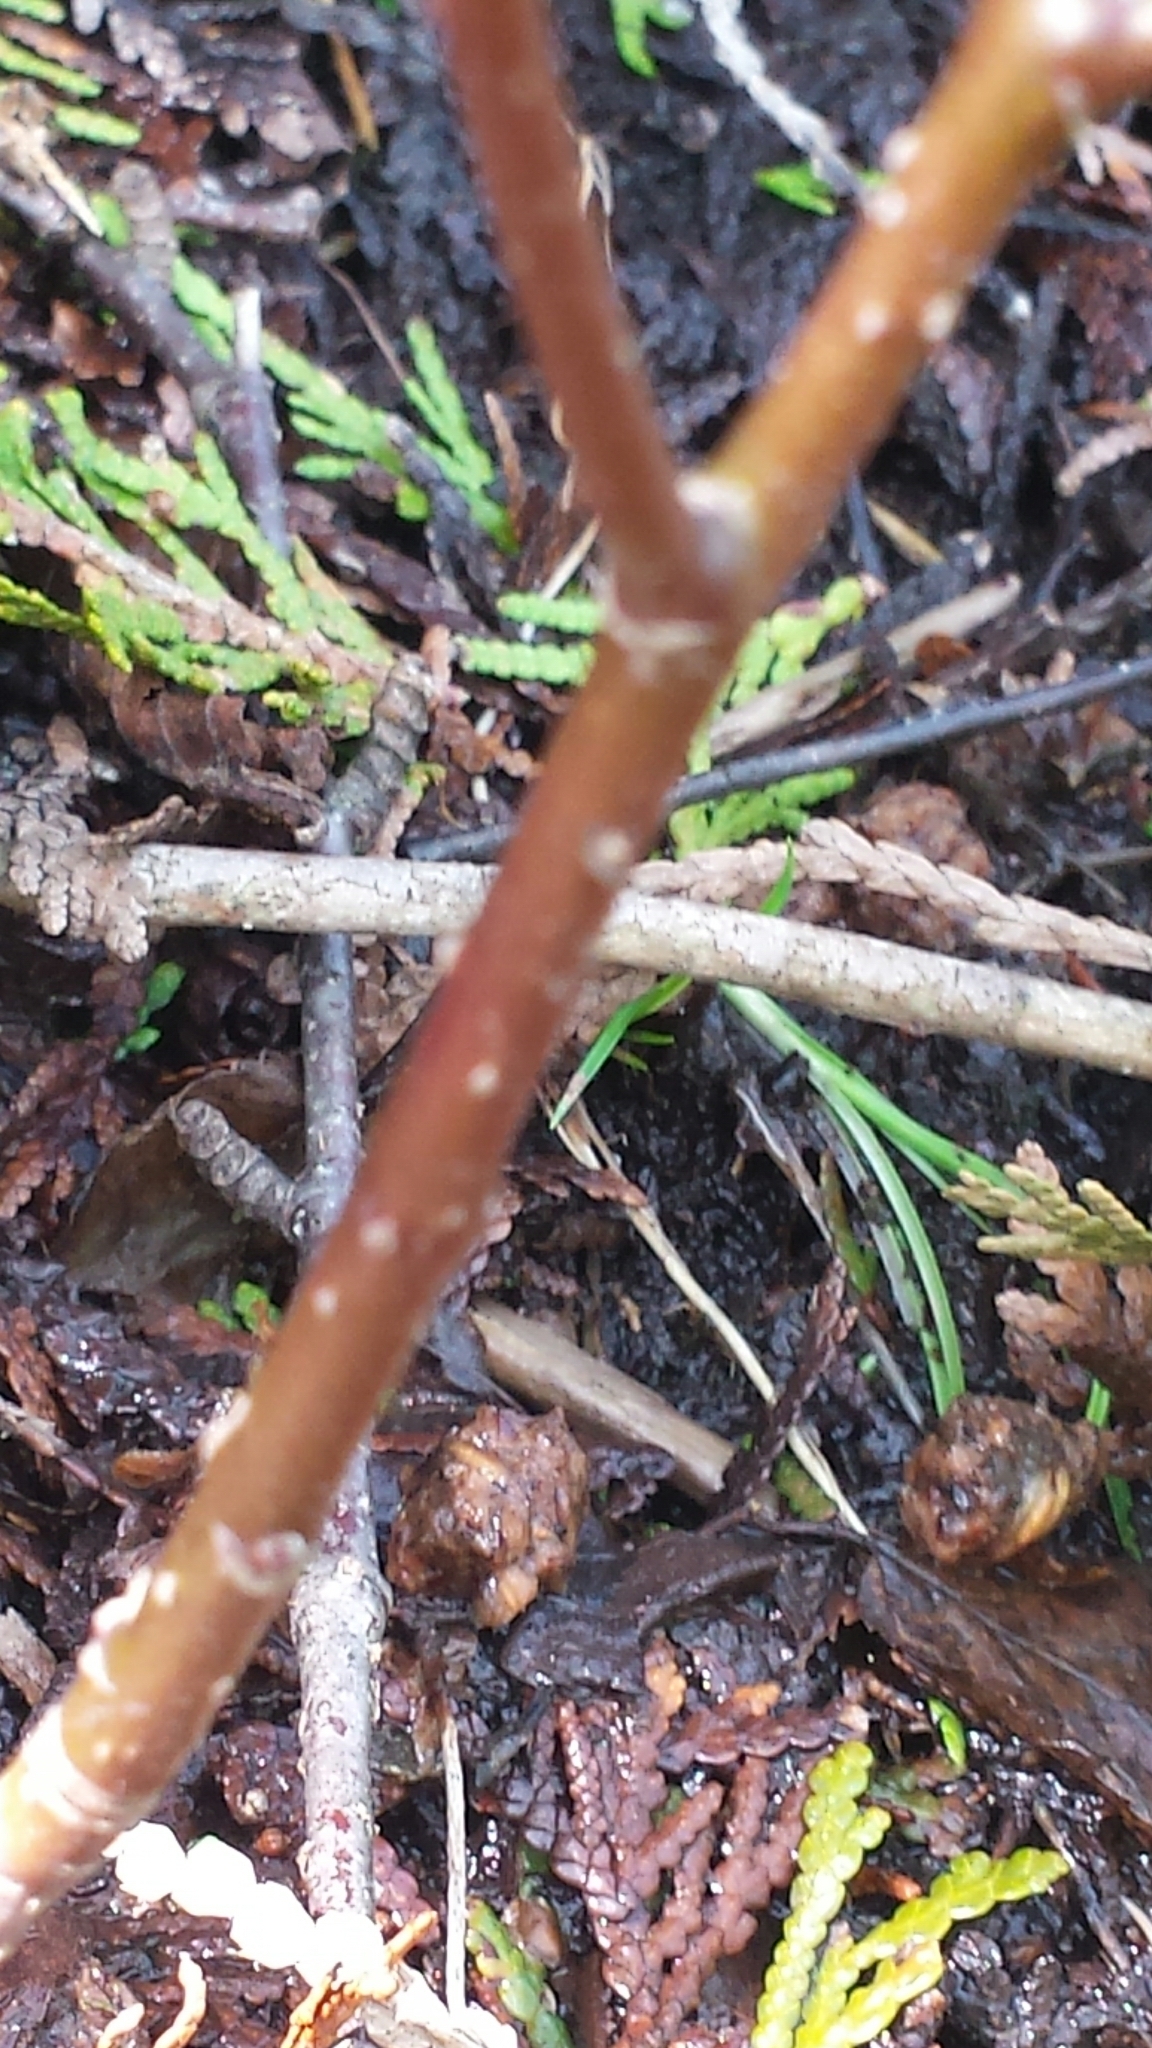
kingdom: Plantae
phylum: Tracheophyta
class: Magnoliopsida
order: Cornales
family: Cornaceae
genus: Cornus
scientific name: Cornus sericea
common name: Red-osier dogwood
